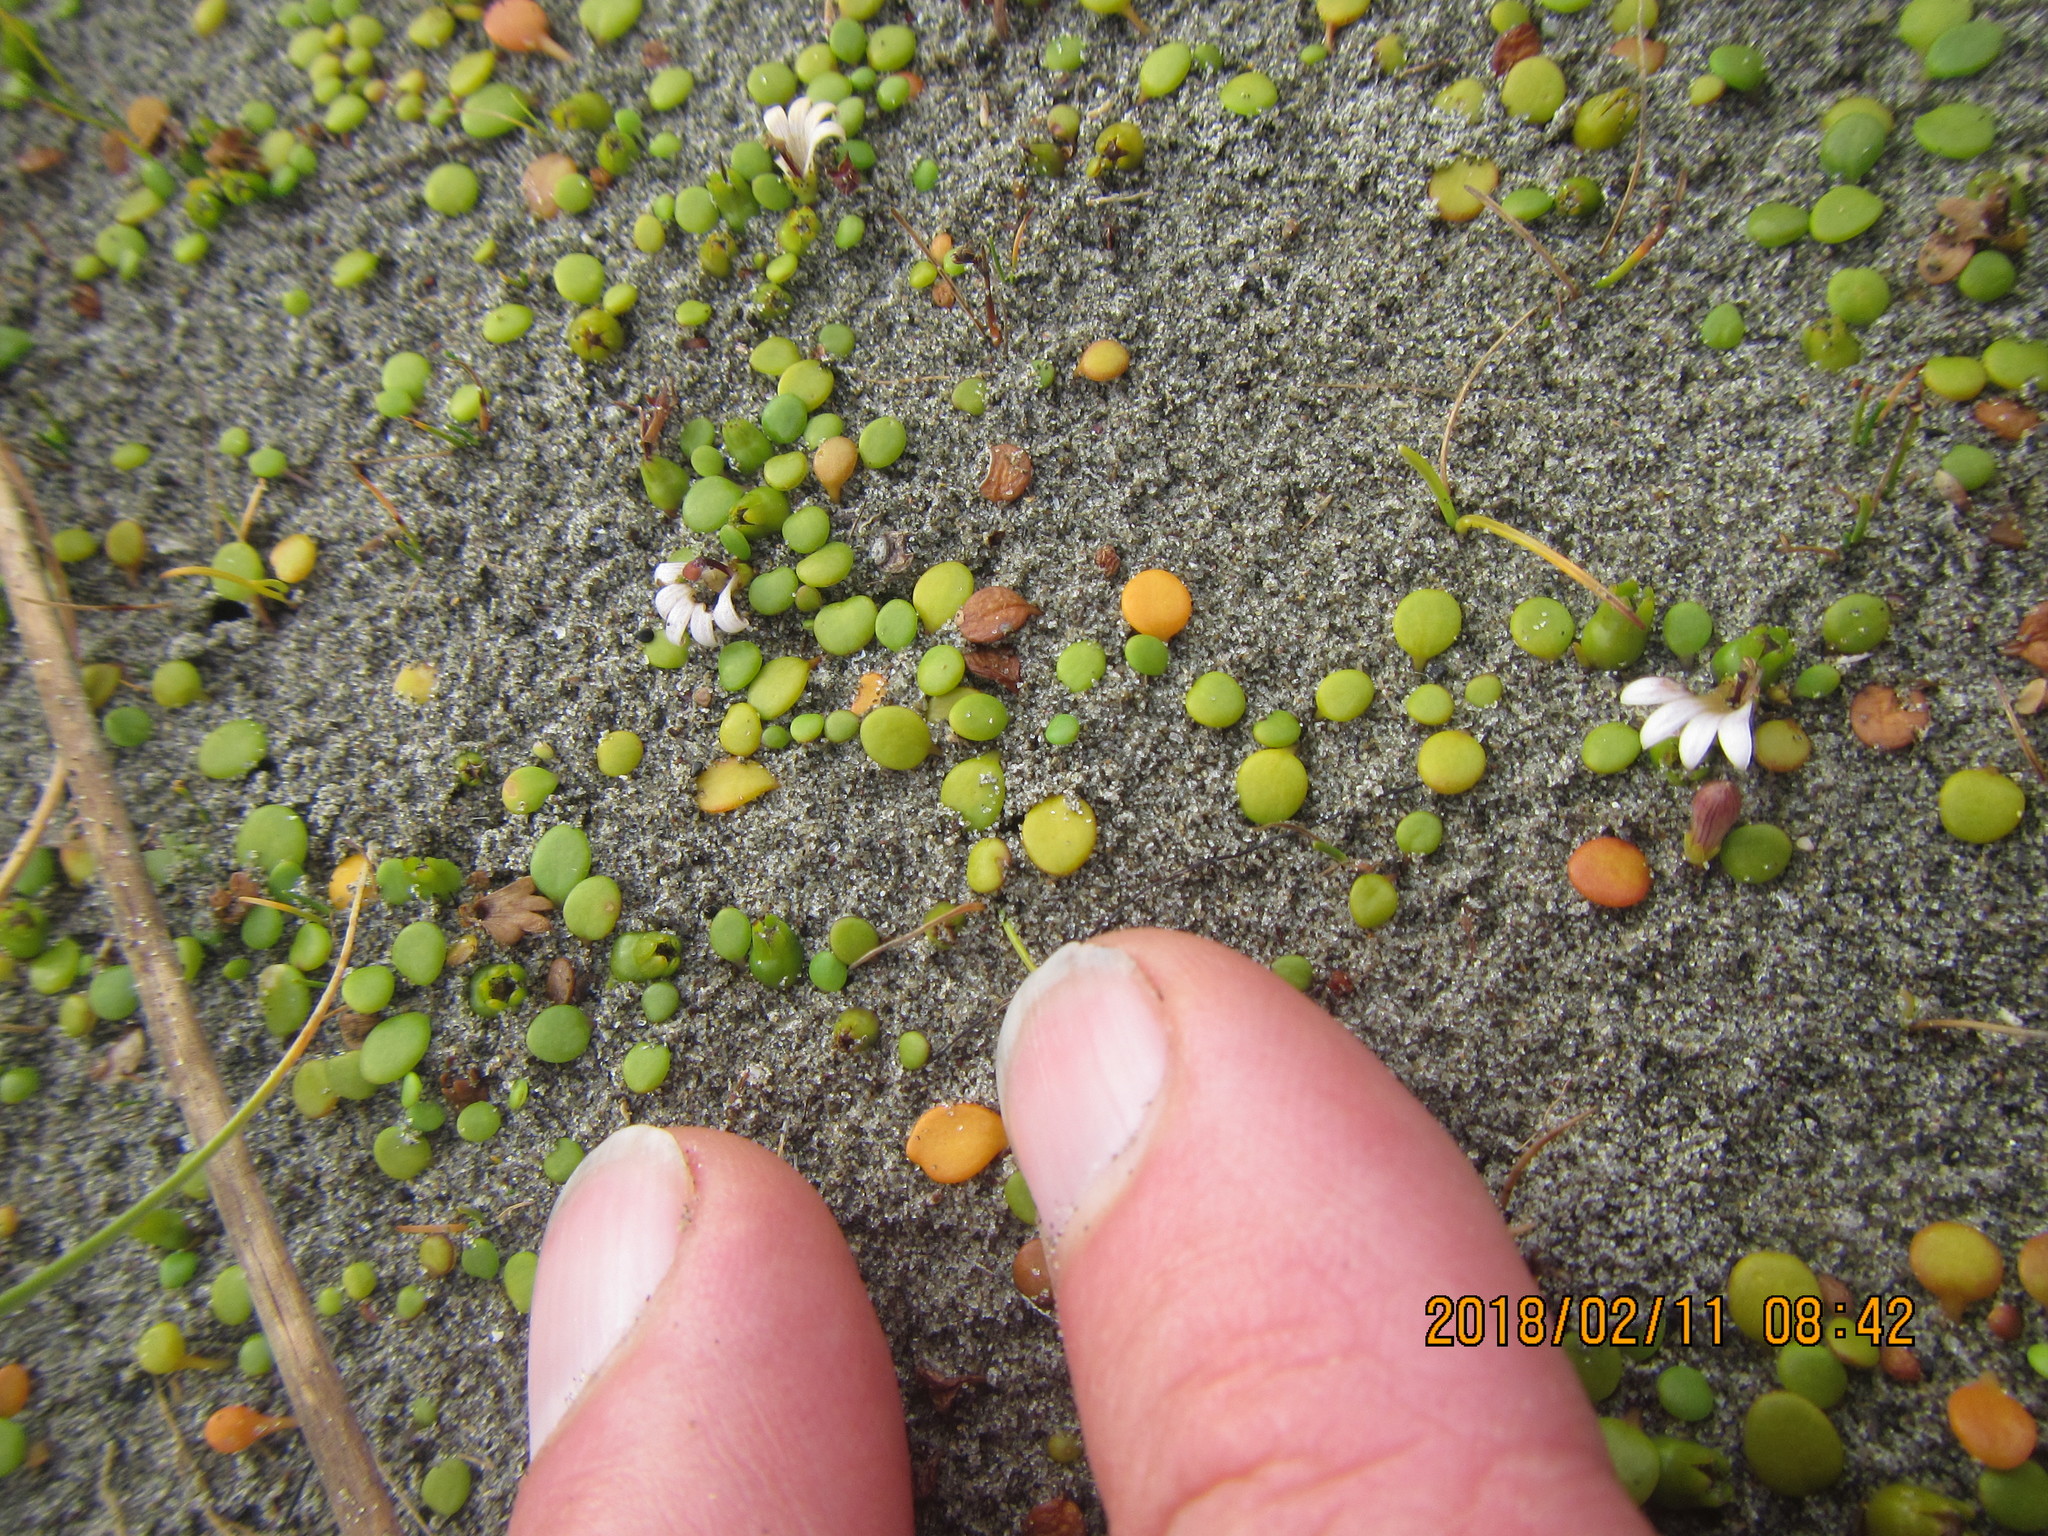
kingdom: Plantae
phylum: Tracheophyta
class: Magnoliopsida
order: Asterales
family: Goodeniaceae
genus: Goodenia
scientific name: Goodenia heenanii
